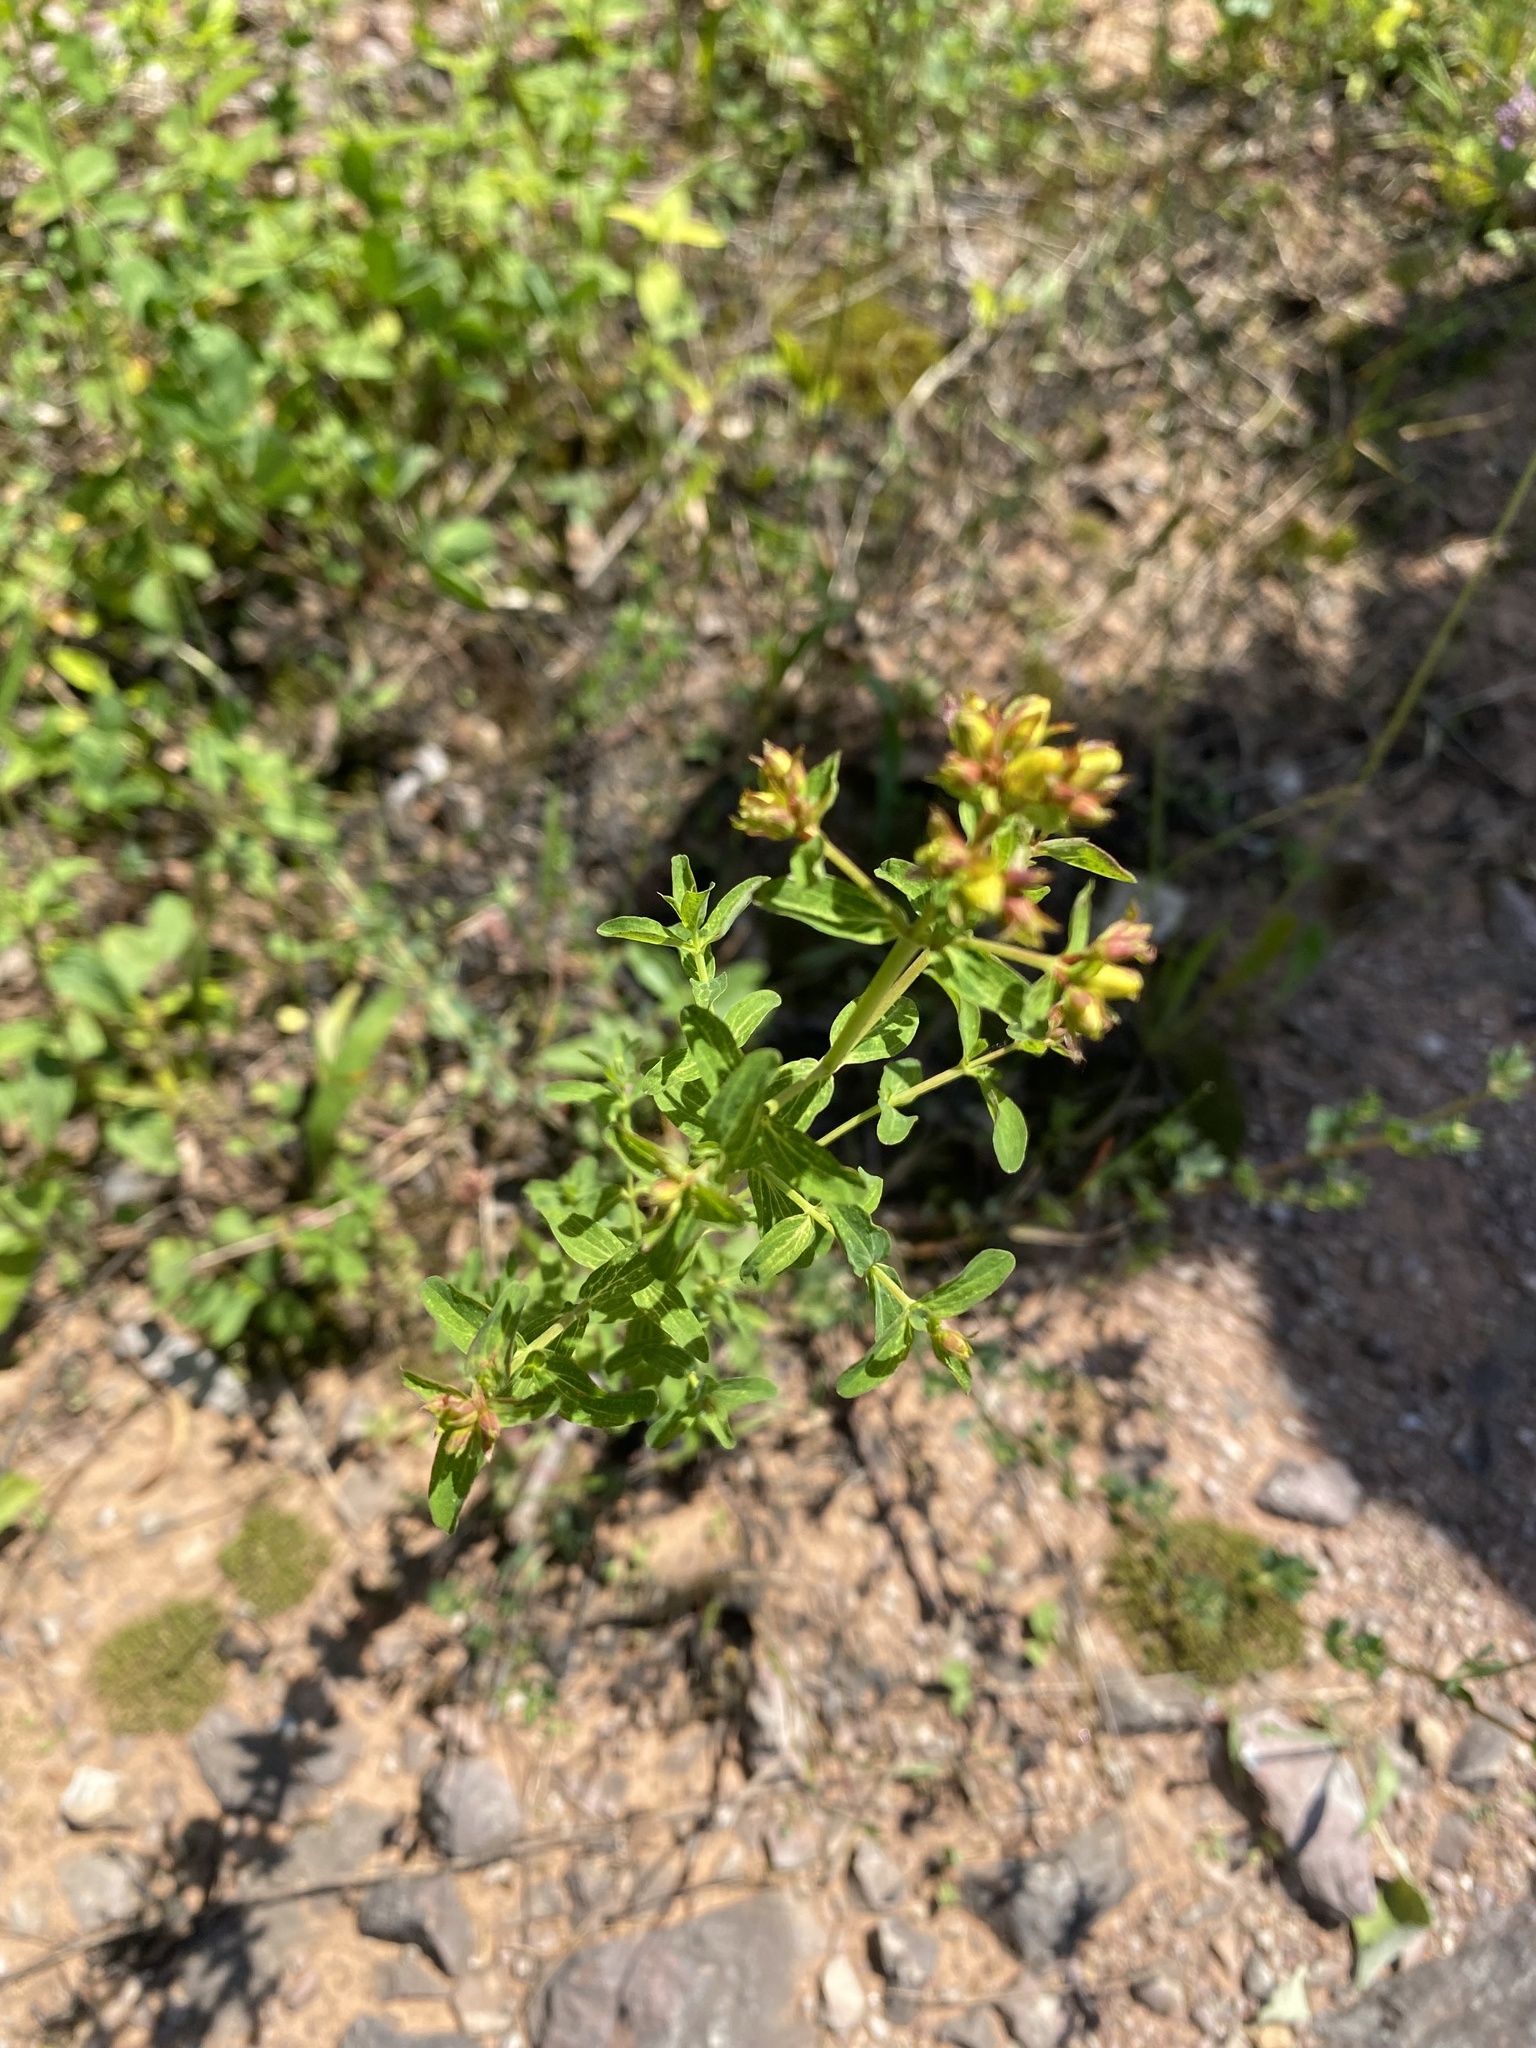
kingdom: Plantae
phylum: Tracheophyta
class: Magnoliopsida
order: Malpighiales
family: Hypericaceae
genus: Hypericum
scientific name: Hypericum perforatum
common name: Common st. johnswort
